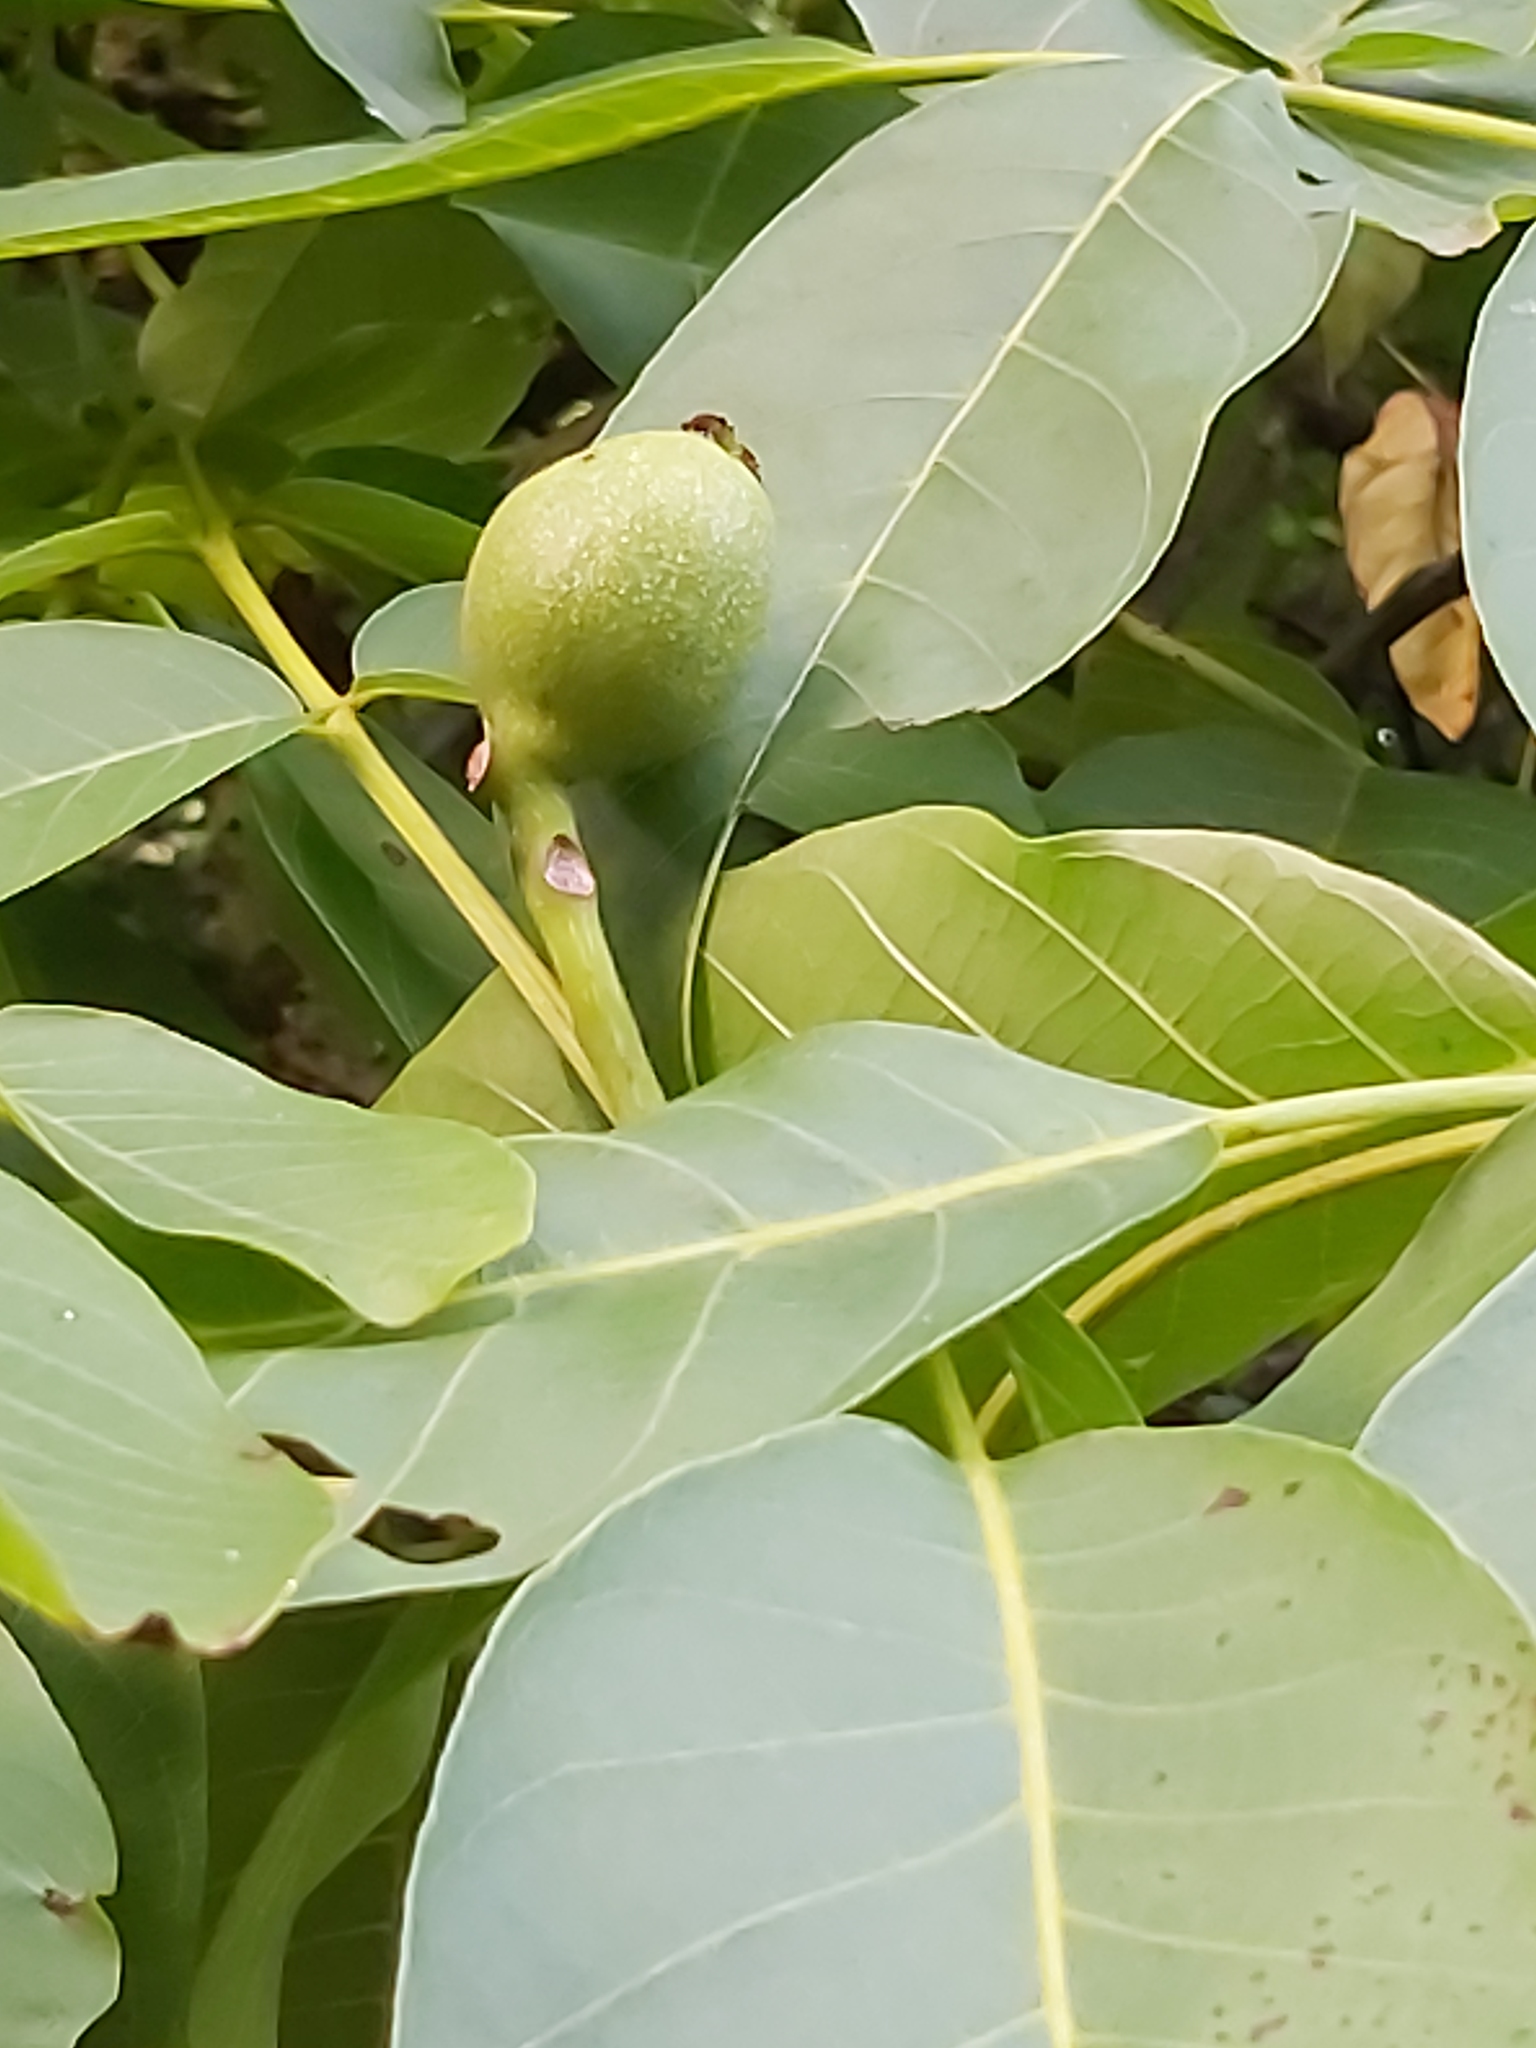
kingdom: Plantae
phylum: Tracheophyta
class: Magnoliopsida
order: Fagales
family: Juglandaceae
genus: Juglans
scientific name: Juglans regia
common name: Walnut
